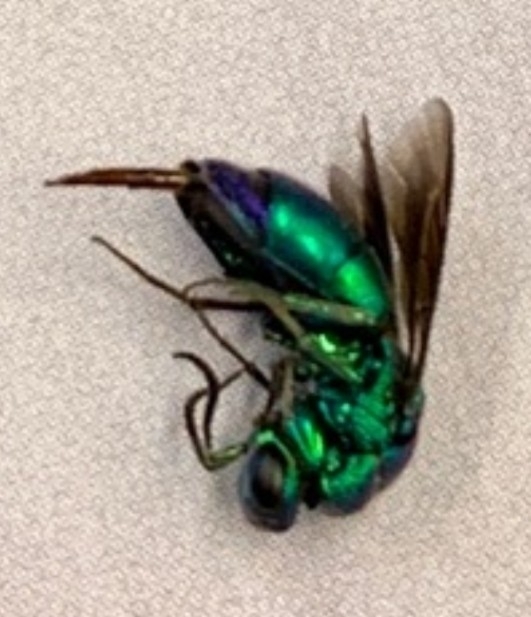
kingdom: Animalia
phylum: Arthropoda
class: Insecta
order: Hymenoptera
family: Chrysididae
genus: Chrysis
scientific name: Chrysis angolensis
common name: Cuckoo wasp
